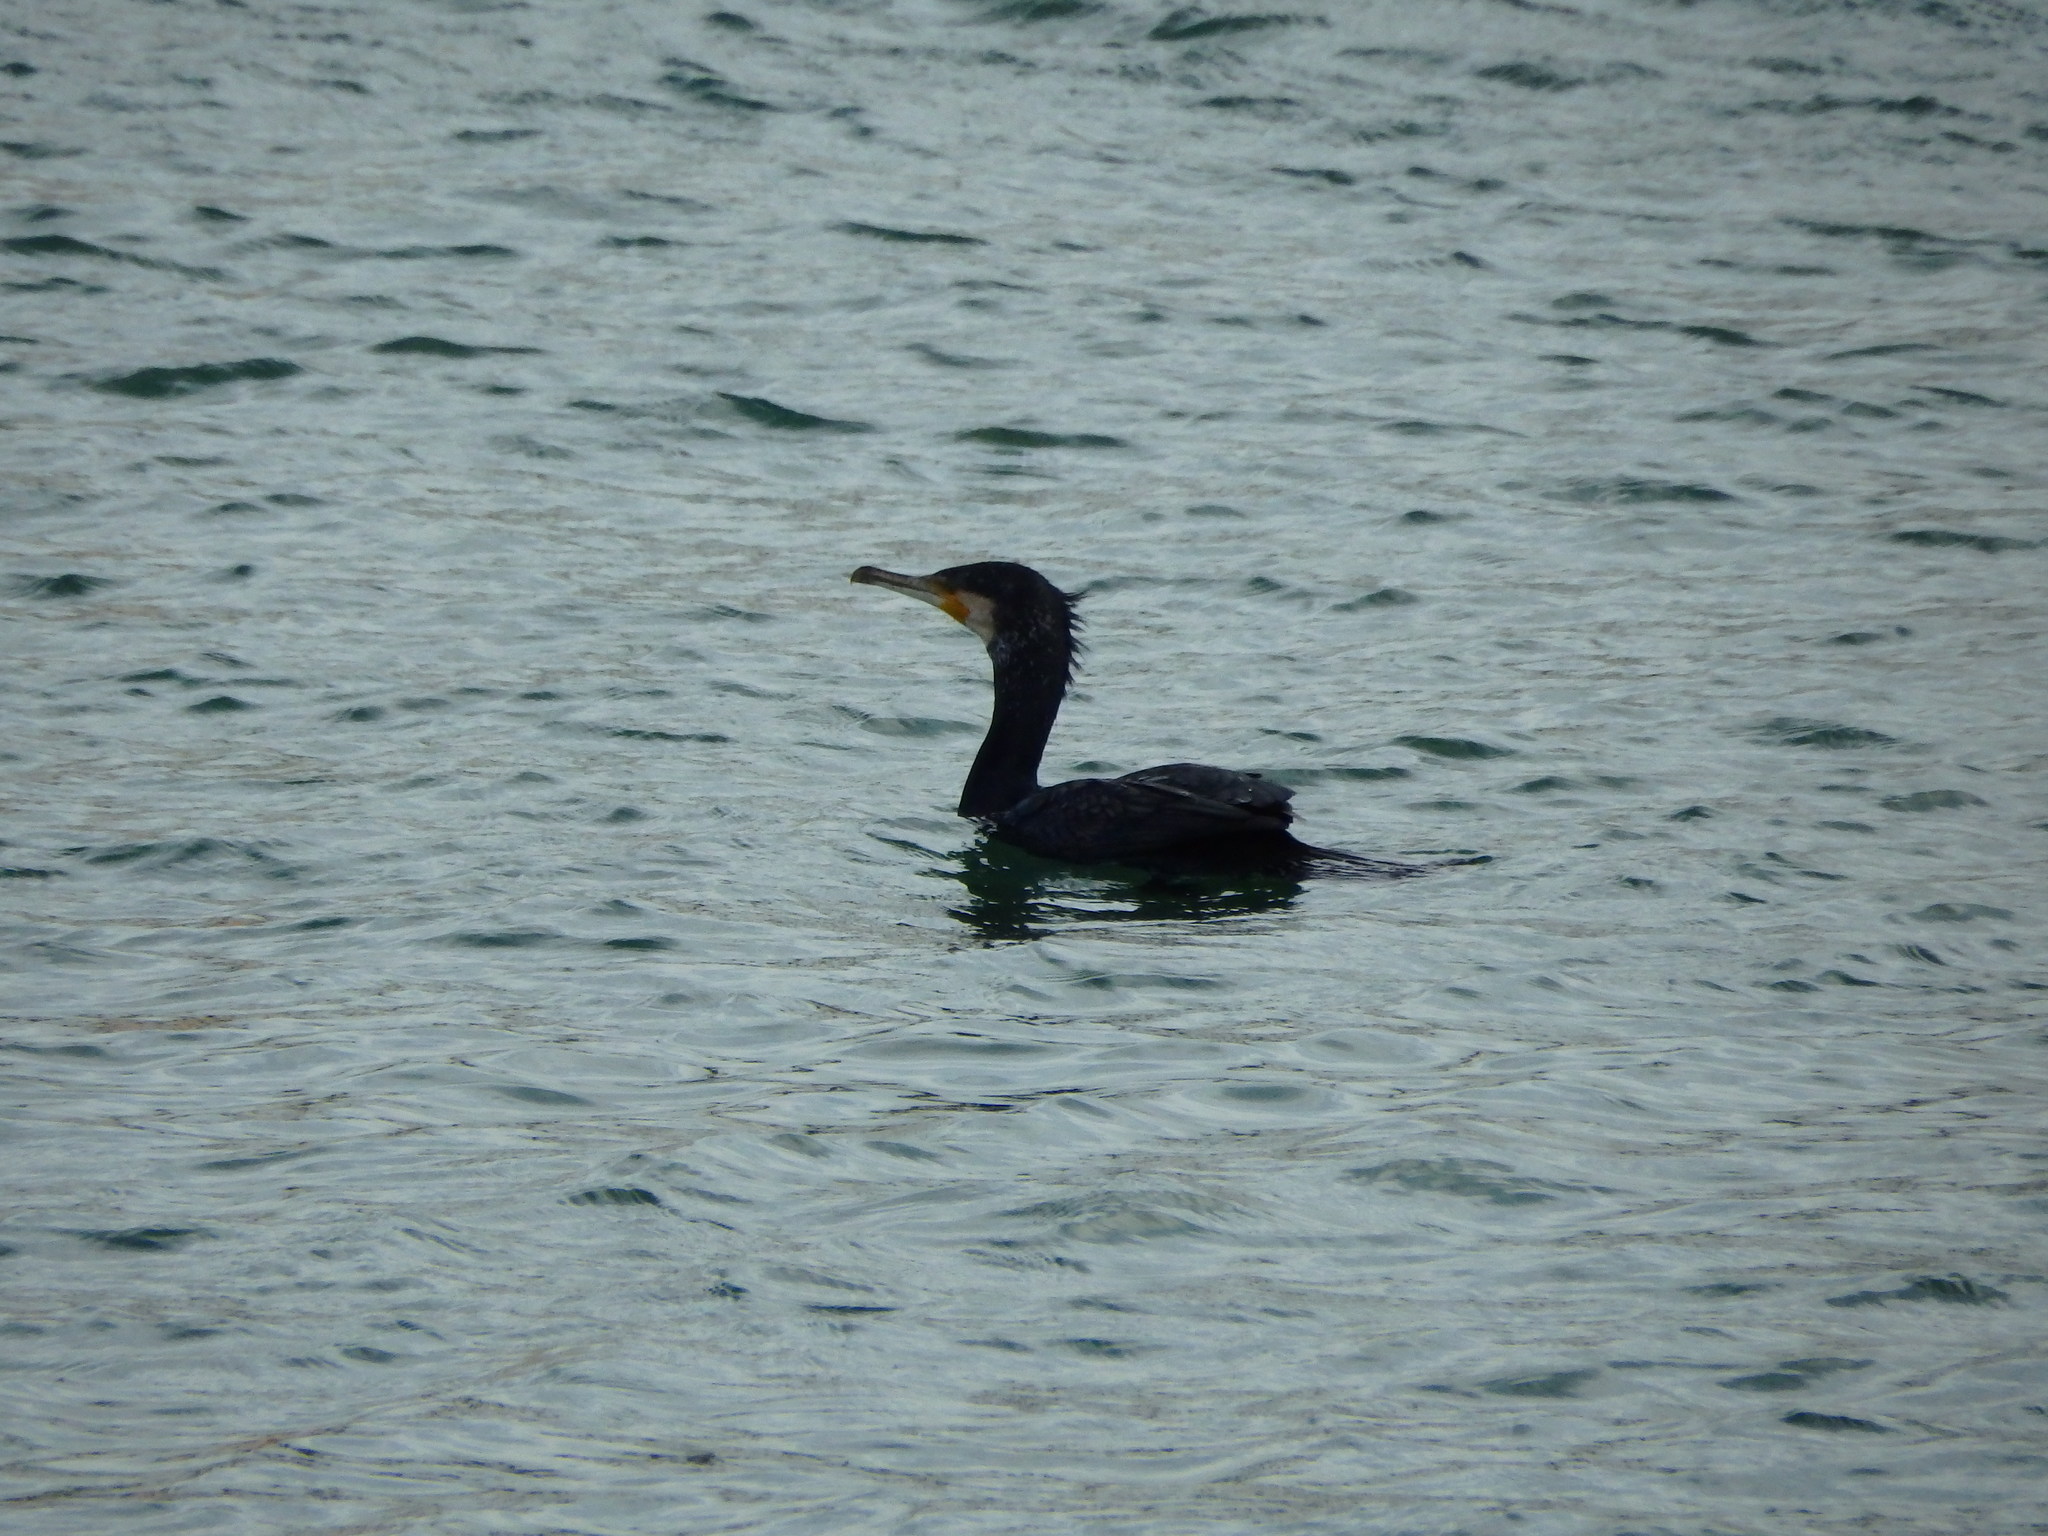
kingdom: Animalia
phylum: Chordata
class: Aves
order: Suliformes
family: Phalacrocoracidae
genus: Phalacrocorax
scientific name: Phalacrocorax carbo
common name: Great cormorant
